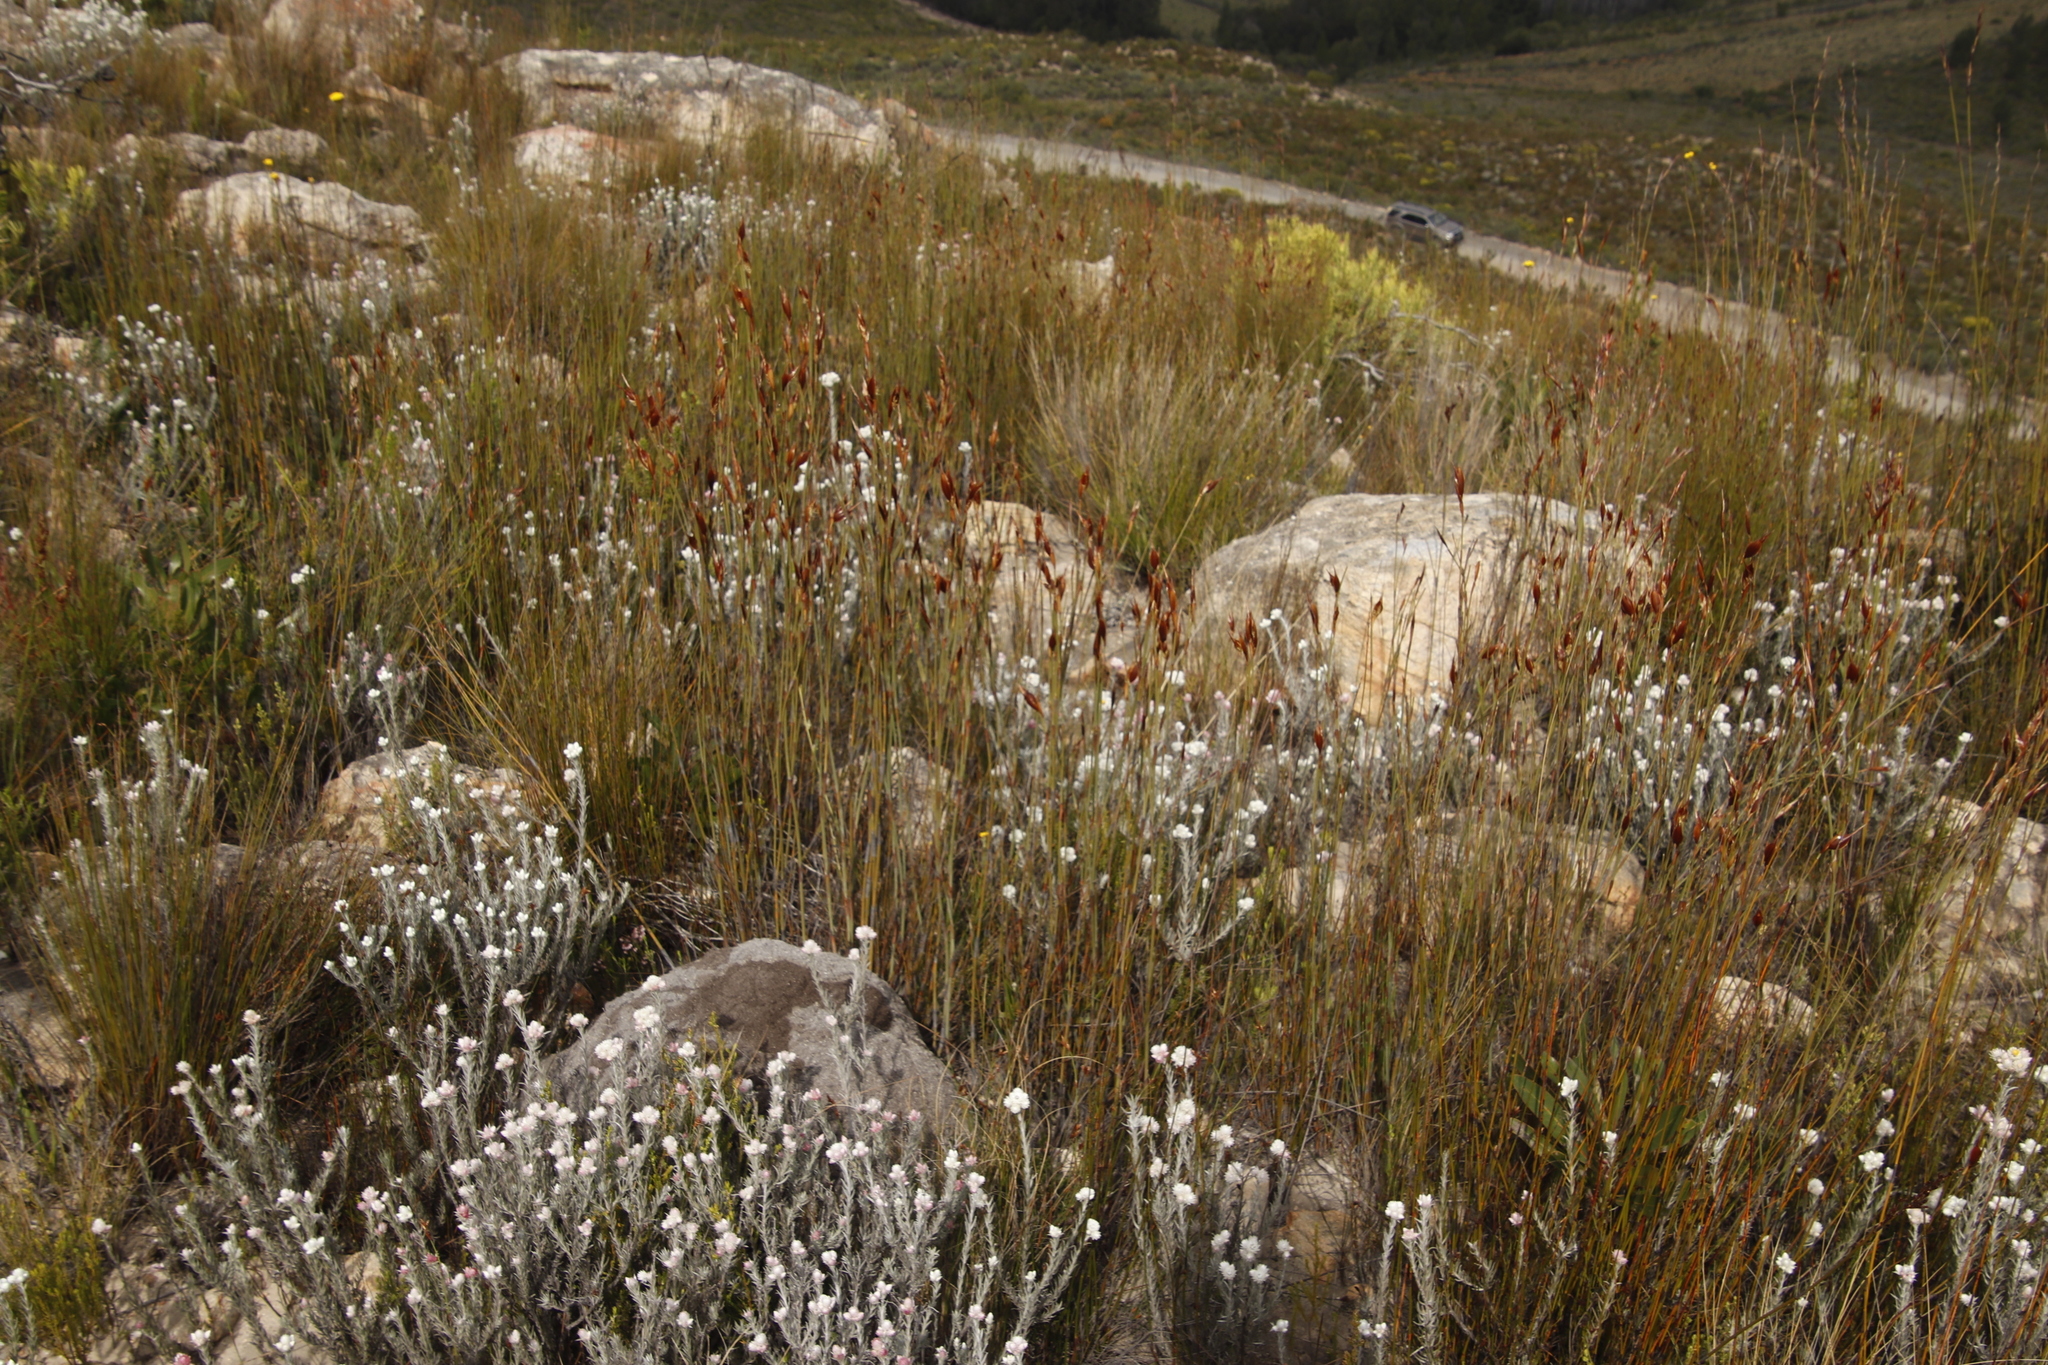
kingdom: Plantae
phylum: Tracheophyta
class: Liliopsida
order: Poales
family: Restionaceae
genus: Willdenowia
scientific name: Willdenowia teres
